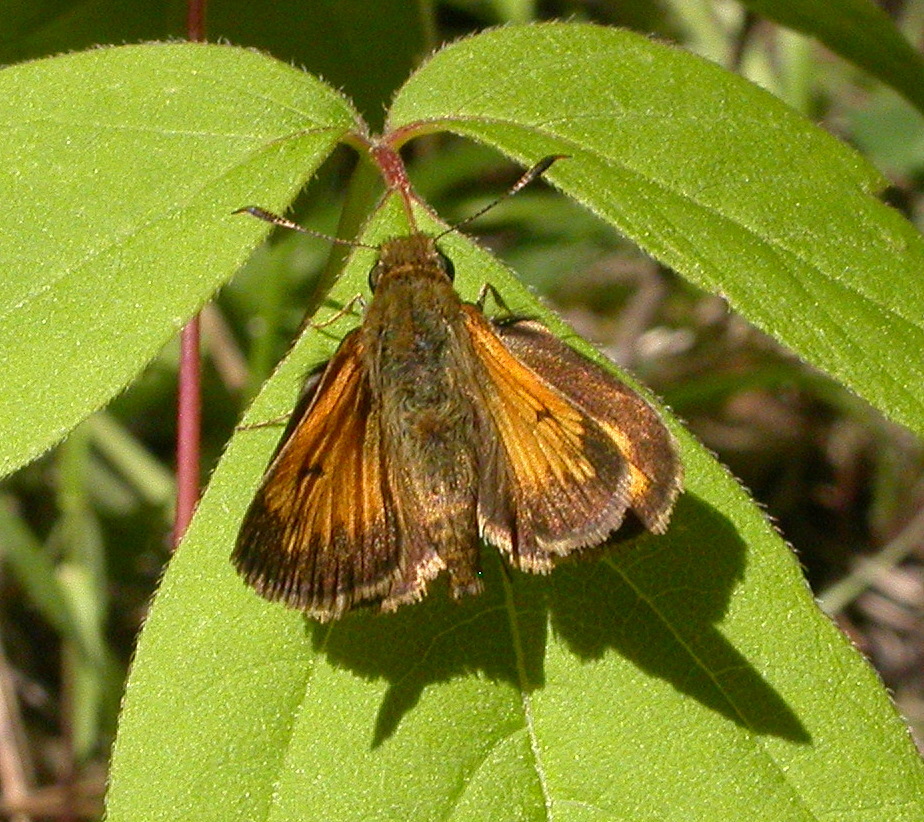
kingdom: Animalia
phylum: Arthropoda
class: Insecta
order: Lepidoptera
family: Hesperiidae
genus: Lon
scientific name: Lon hobomok
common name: Hobomok skipper
